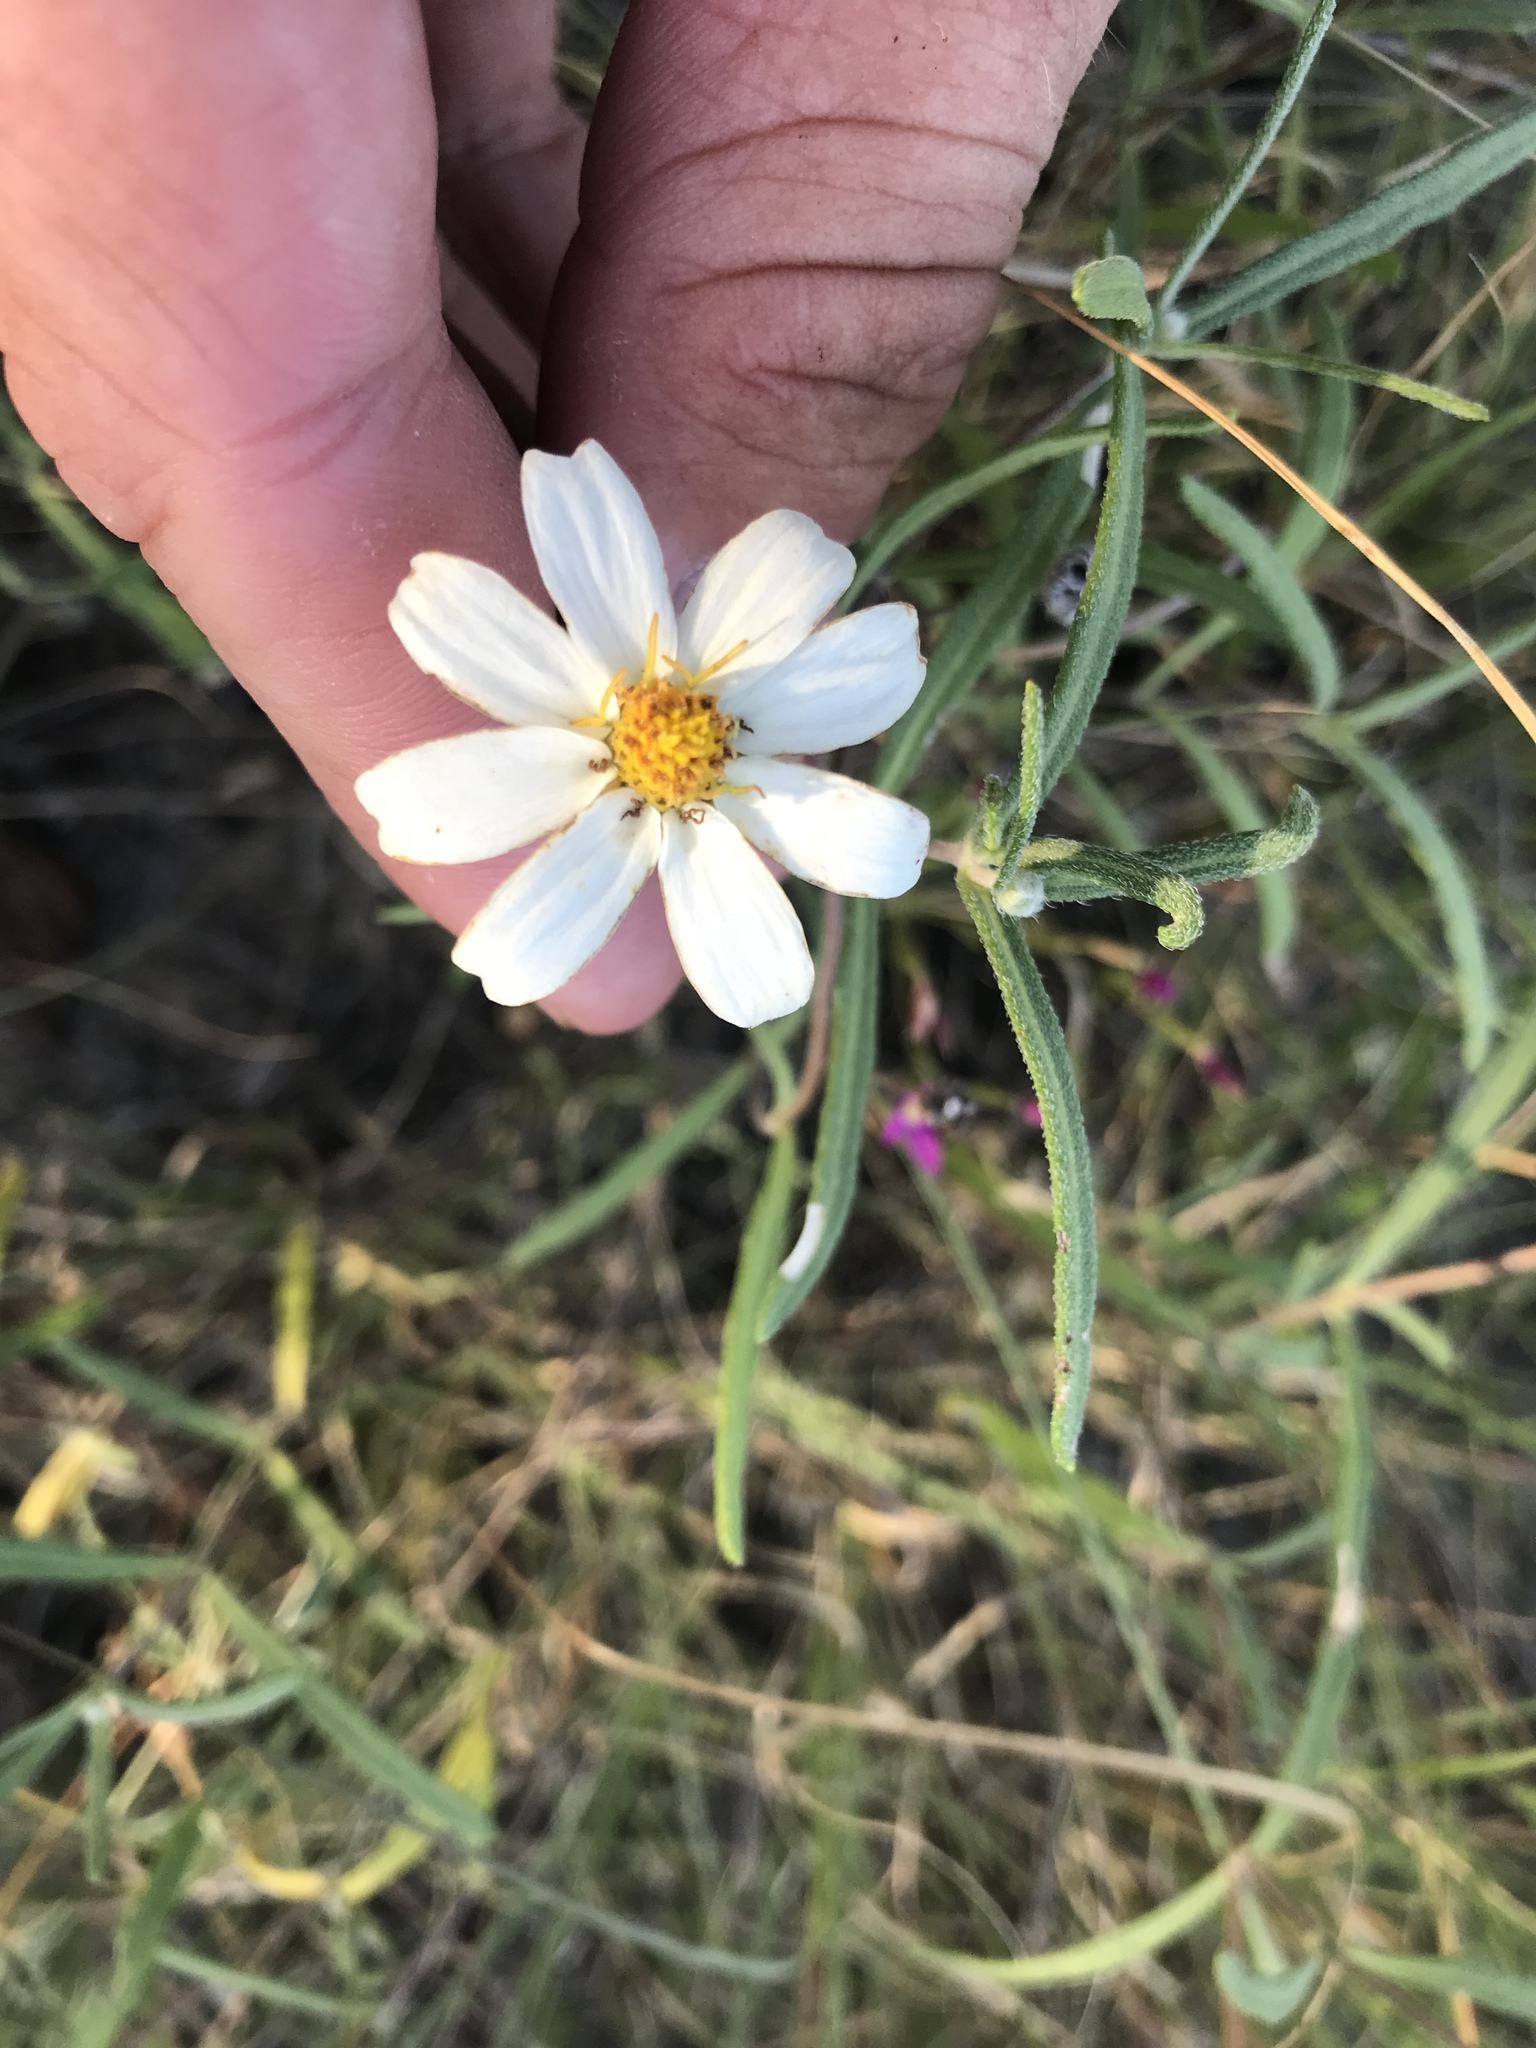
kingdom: Plantae
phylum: Tracheophyta
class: Magnoliopsida
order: Asterales
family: Asteraceae
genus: Melampodium
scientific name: Melampodium leucanthum
